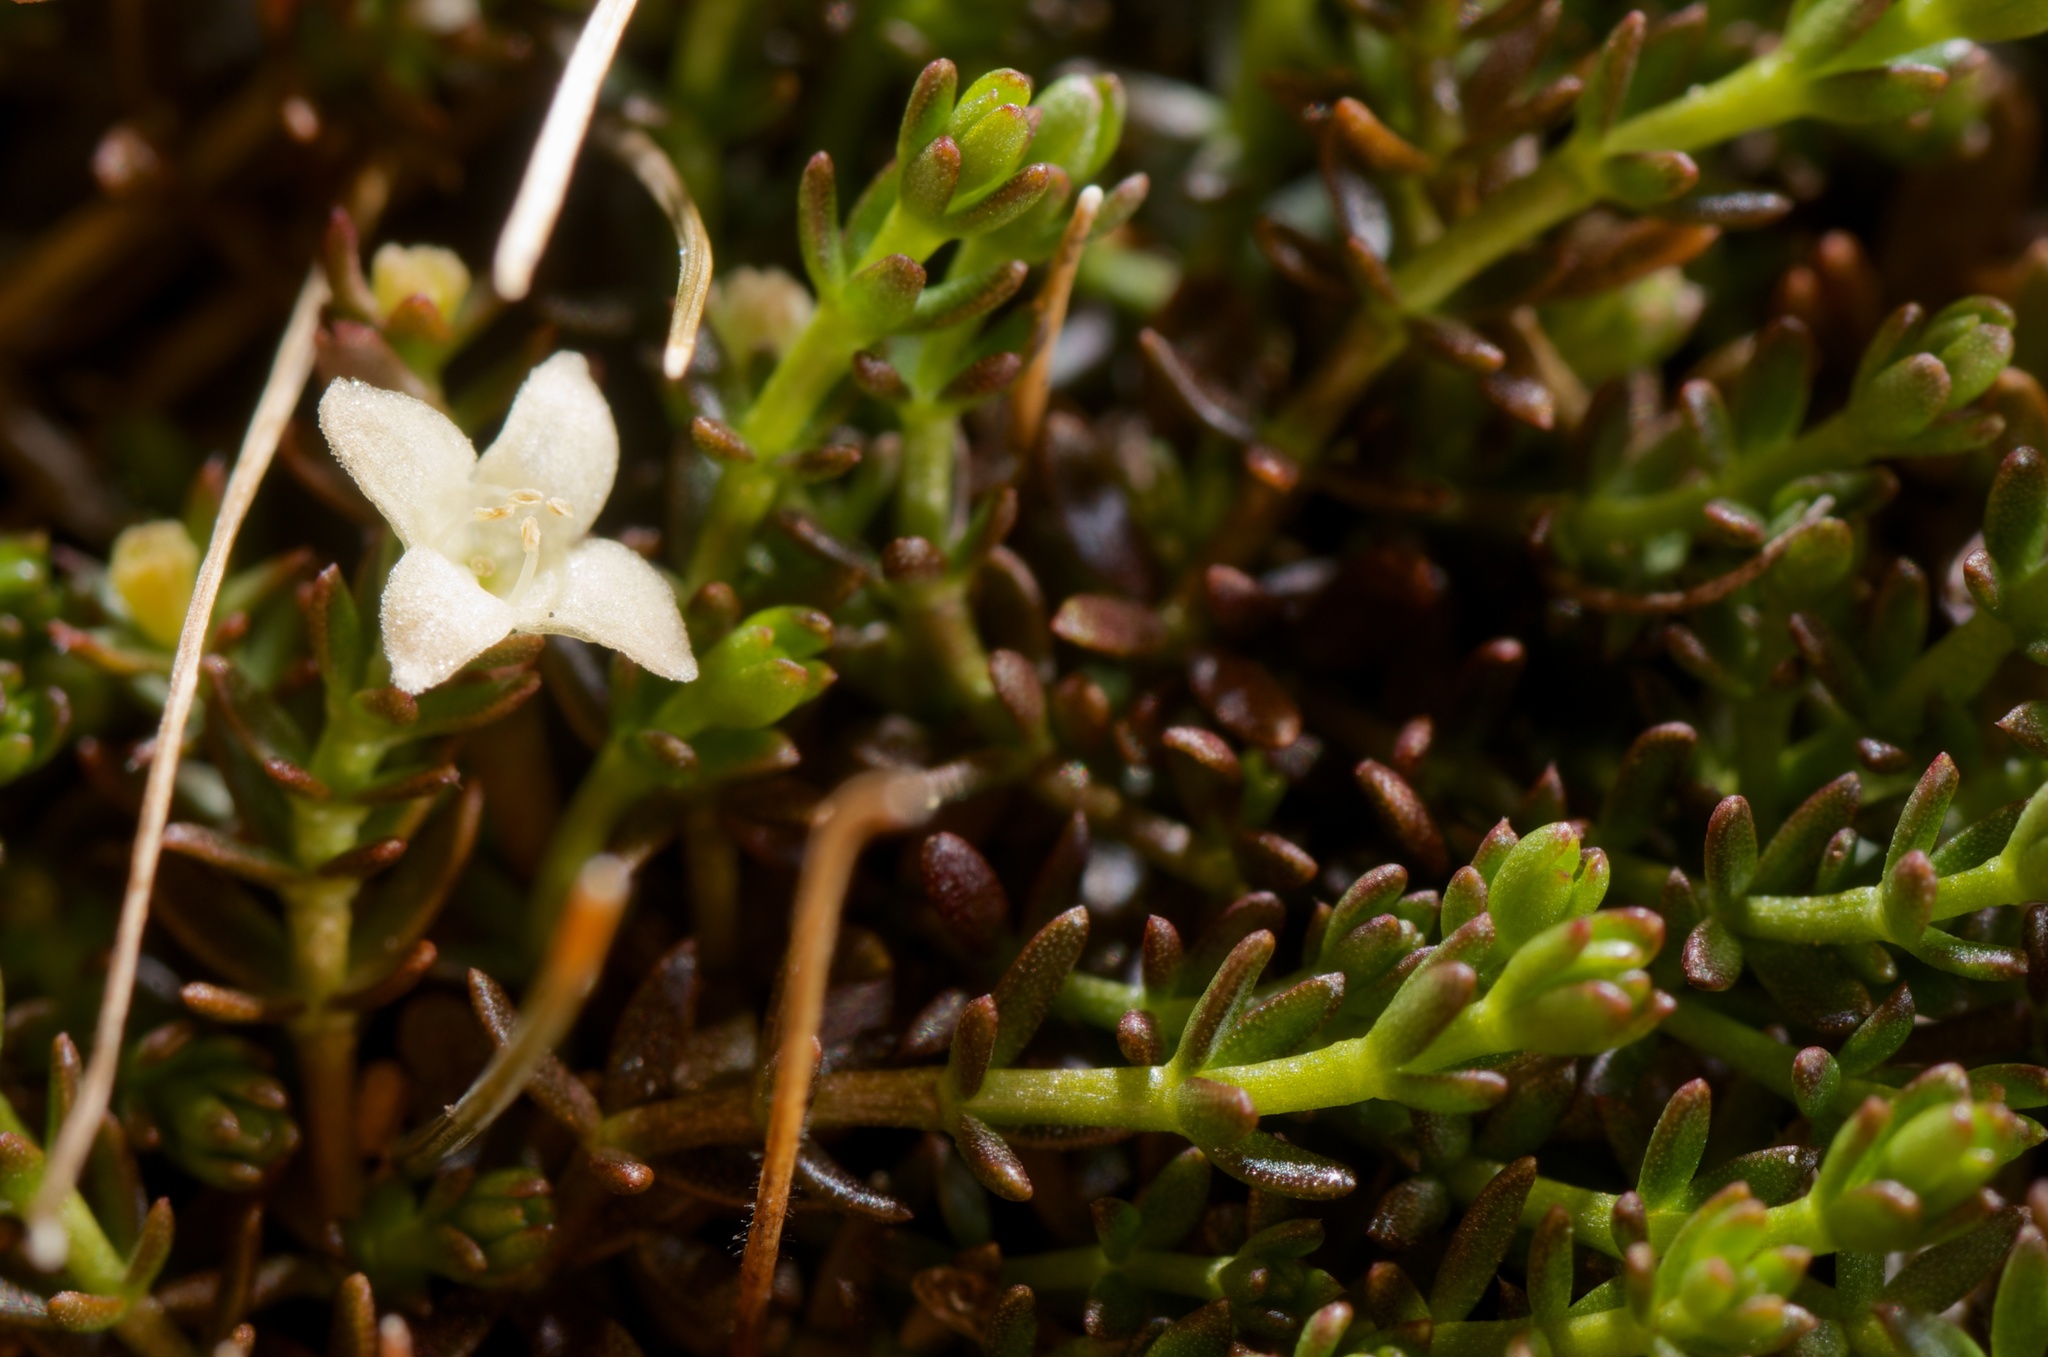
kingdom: Plantae
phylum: Tracheophyta
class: Magnoliopsida
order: Gentianales
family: Rubiaceae
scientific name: Rubiaceae
